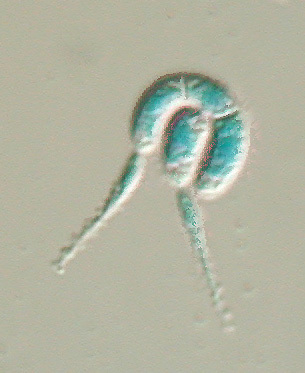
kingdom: Fungi
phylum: Ascomycota
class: Leotiomycetes
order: Helotiales
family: Discinellaceae
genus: Gyoerffyella
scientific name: Gyoerffyella entomobryoides
